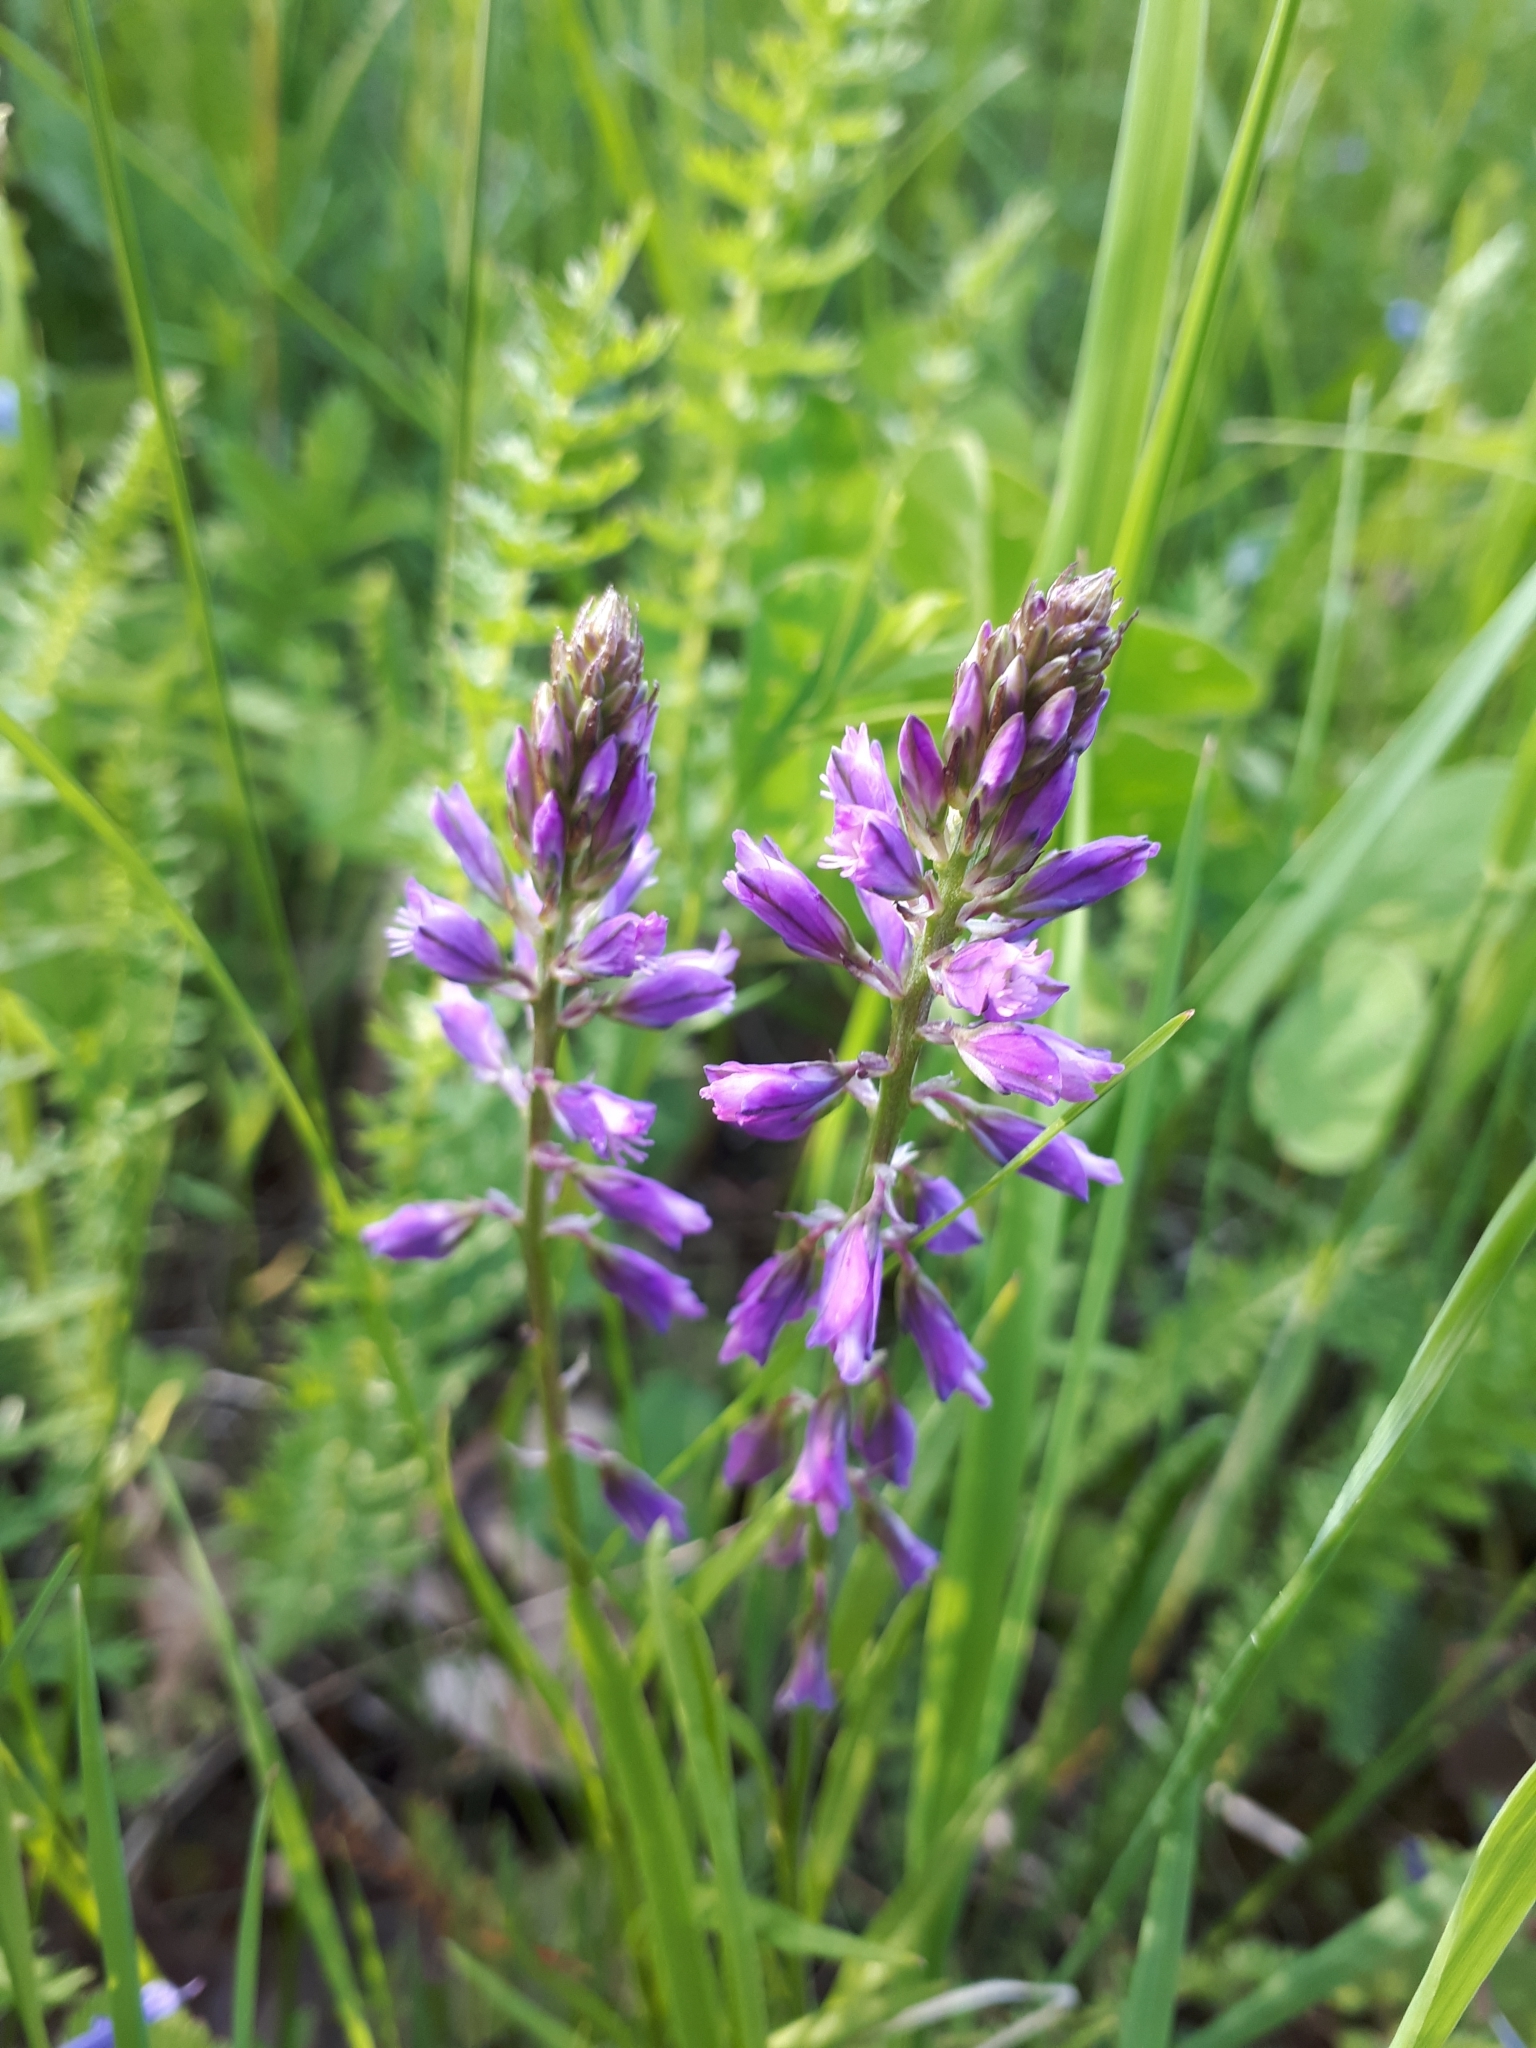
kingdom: Plantae
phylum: Tracheophyta
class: Magnoliopsida
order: Fabales
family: Polygalaceae
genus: Polygala
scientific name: Polygala comosa
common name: Tufted milkwort
